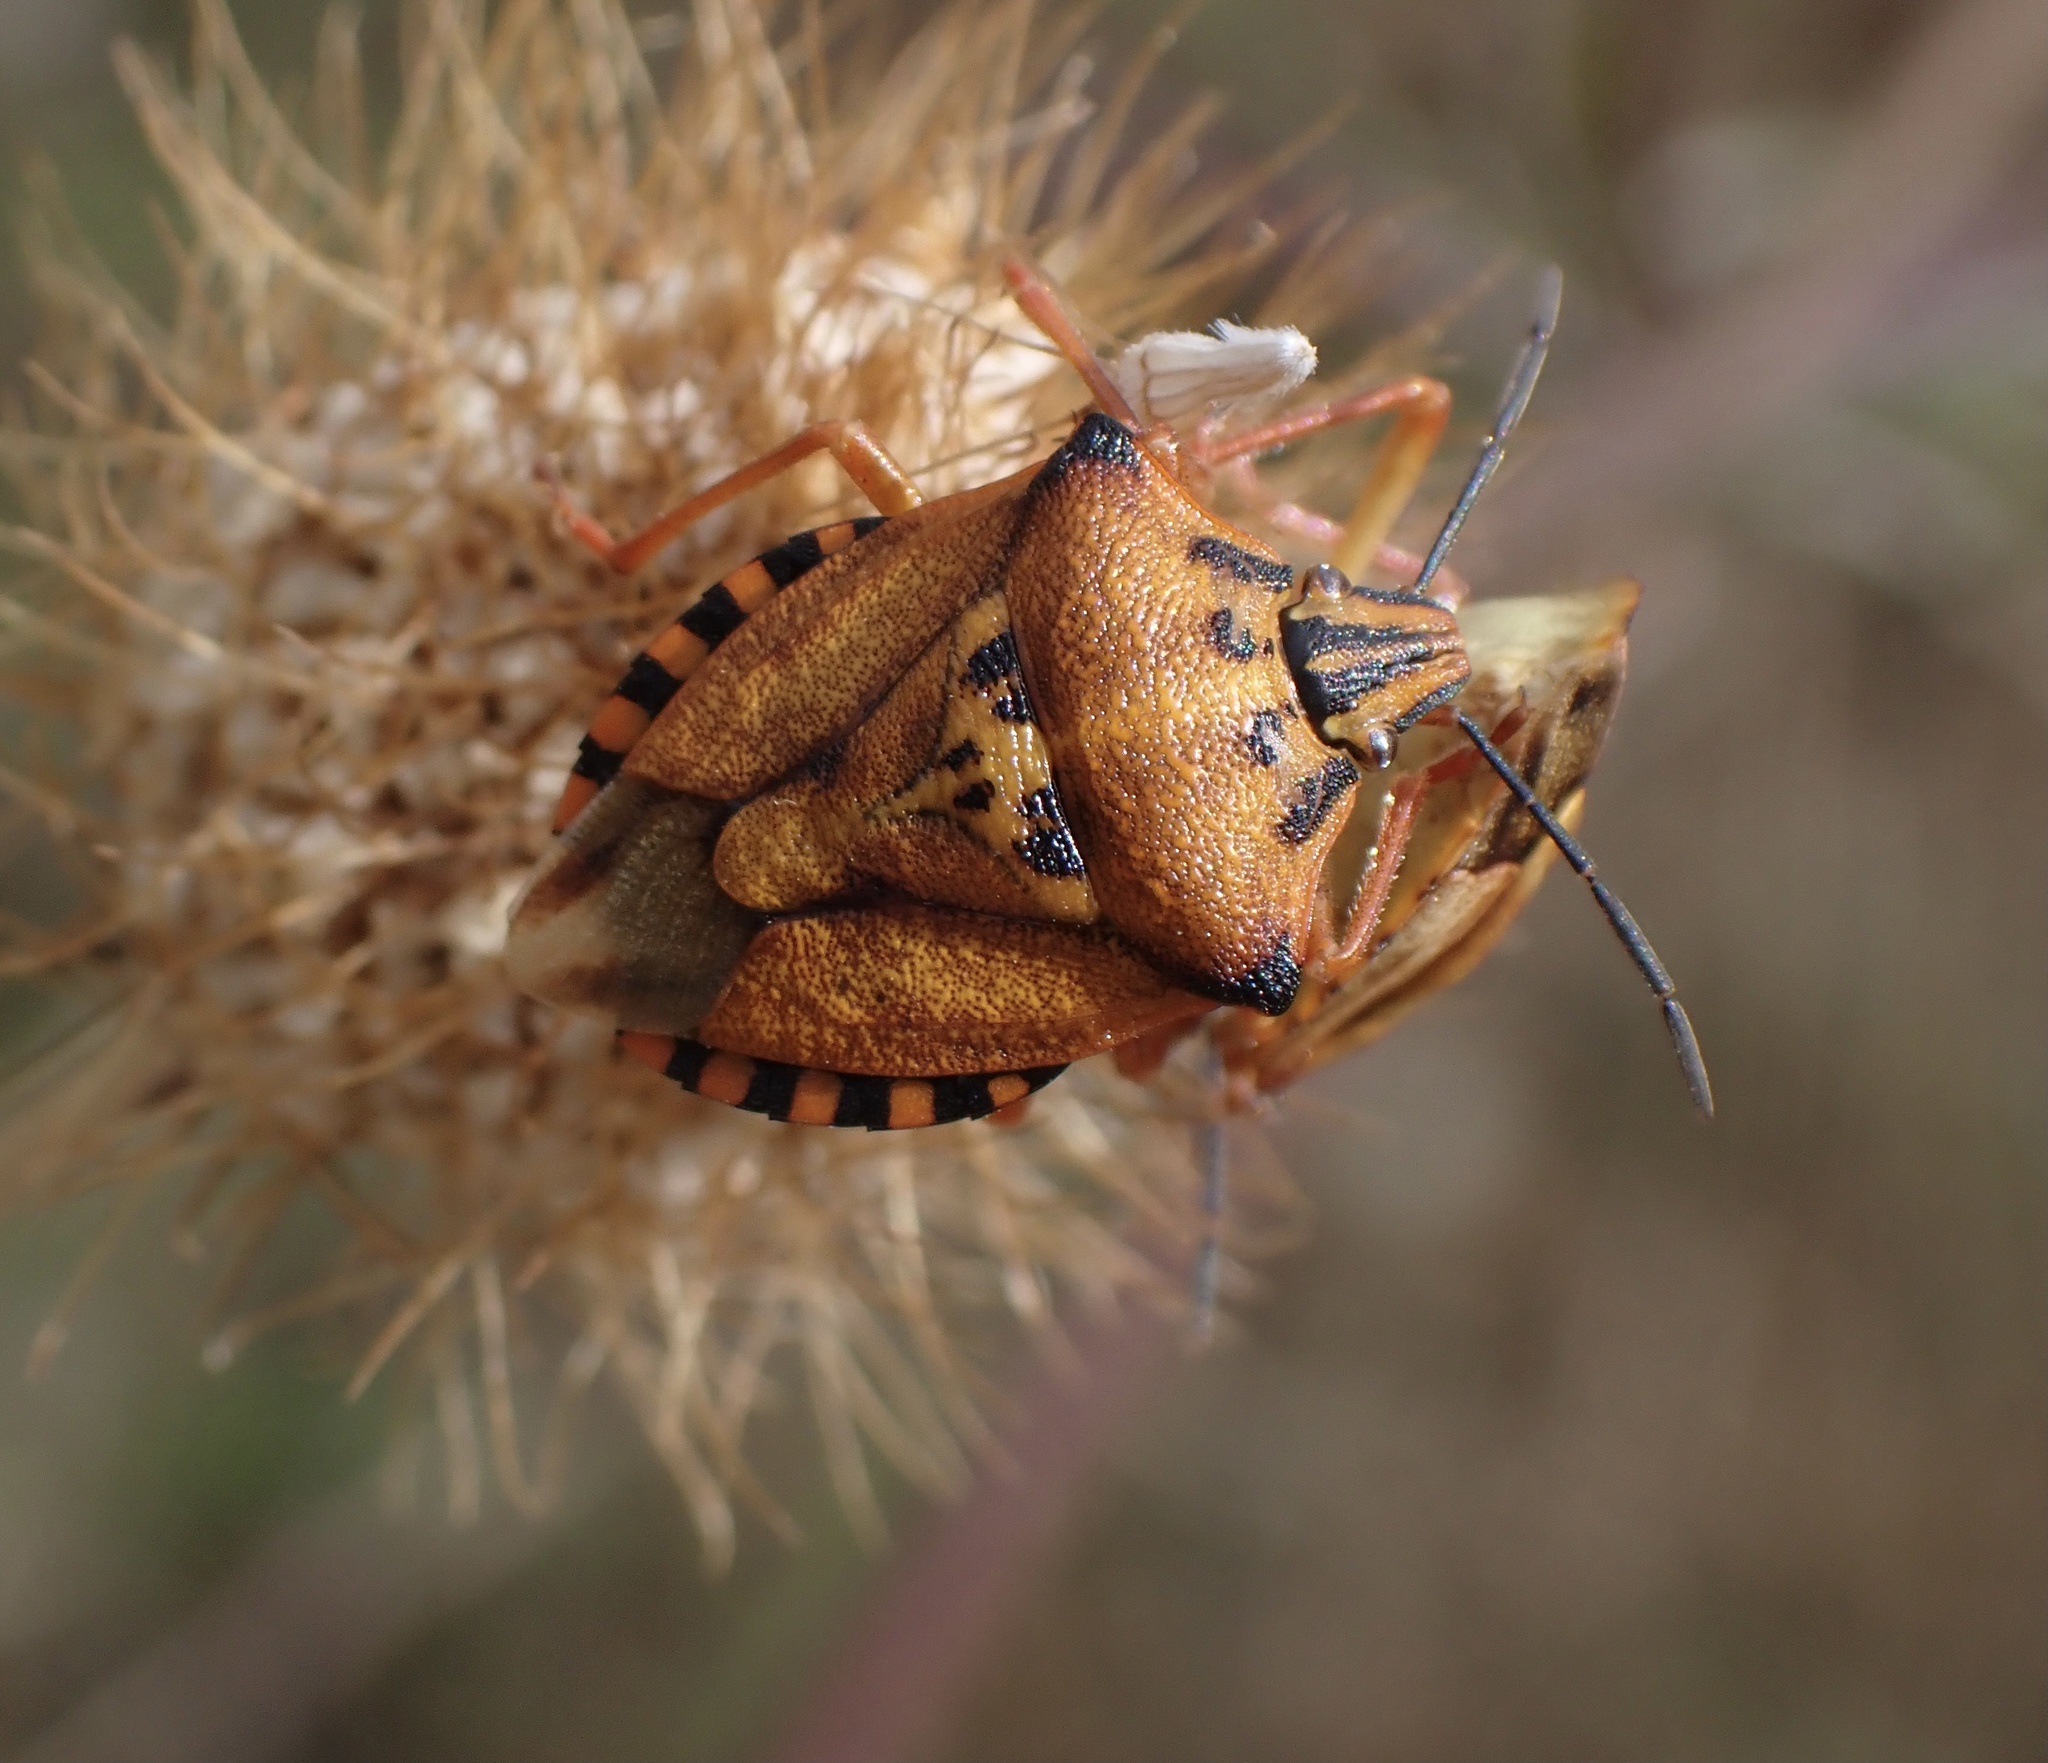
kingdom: Animalia
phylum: Arthropoda
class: Insecta
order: Hemiptera
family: Pentatomidae
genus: Carpocoris
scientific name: Carpocoris mediterraneus
